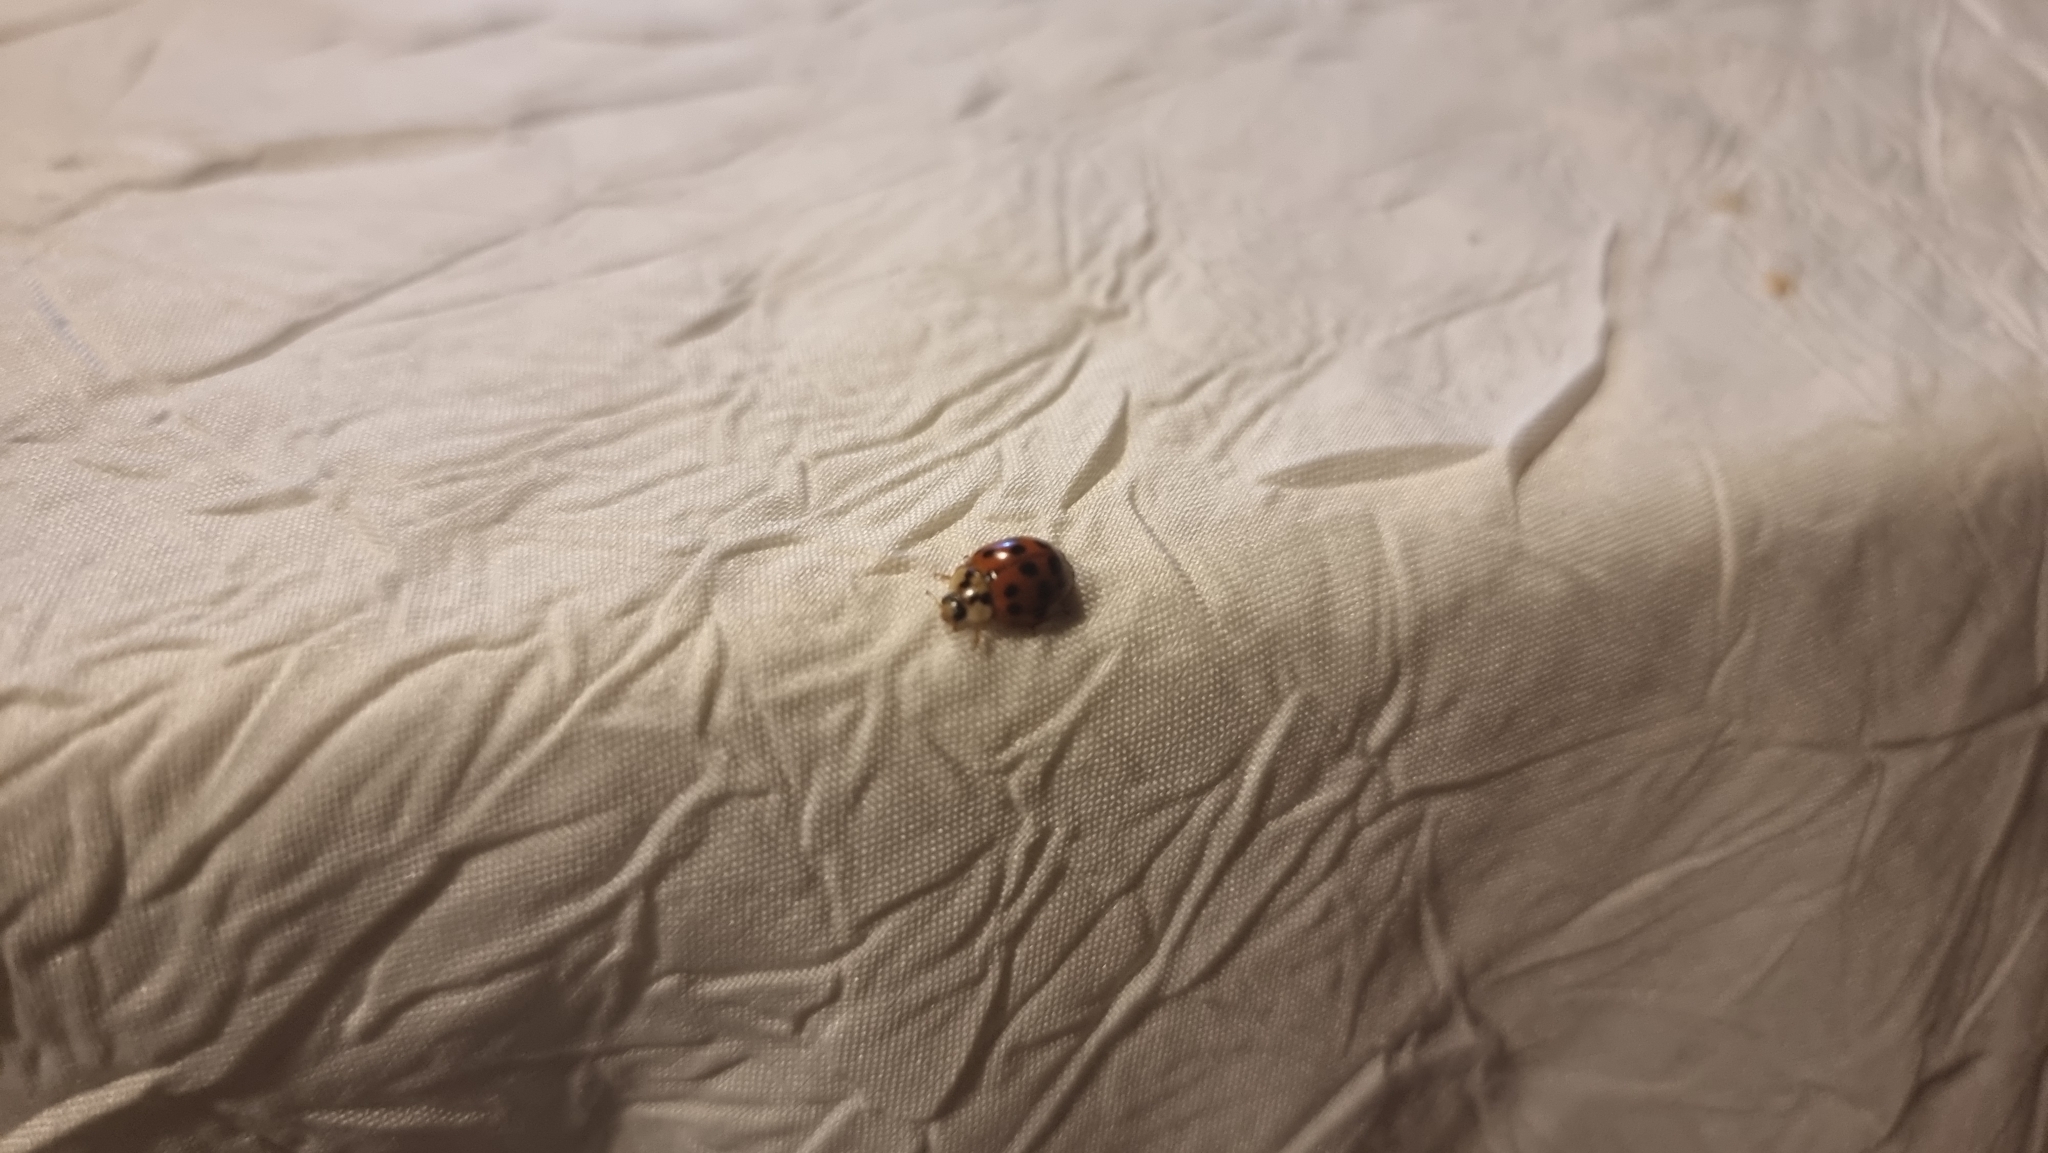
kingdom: Animalia
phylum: Arthropoda
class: Insecta
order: Coleoptera
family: Coccinellidae
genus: Harmonia
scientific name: Harmonia axyridis
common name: Harlequin ladybird
